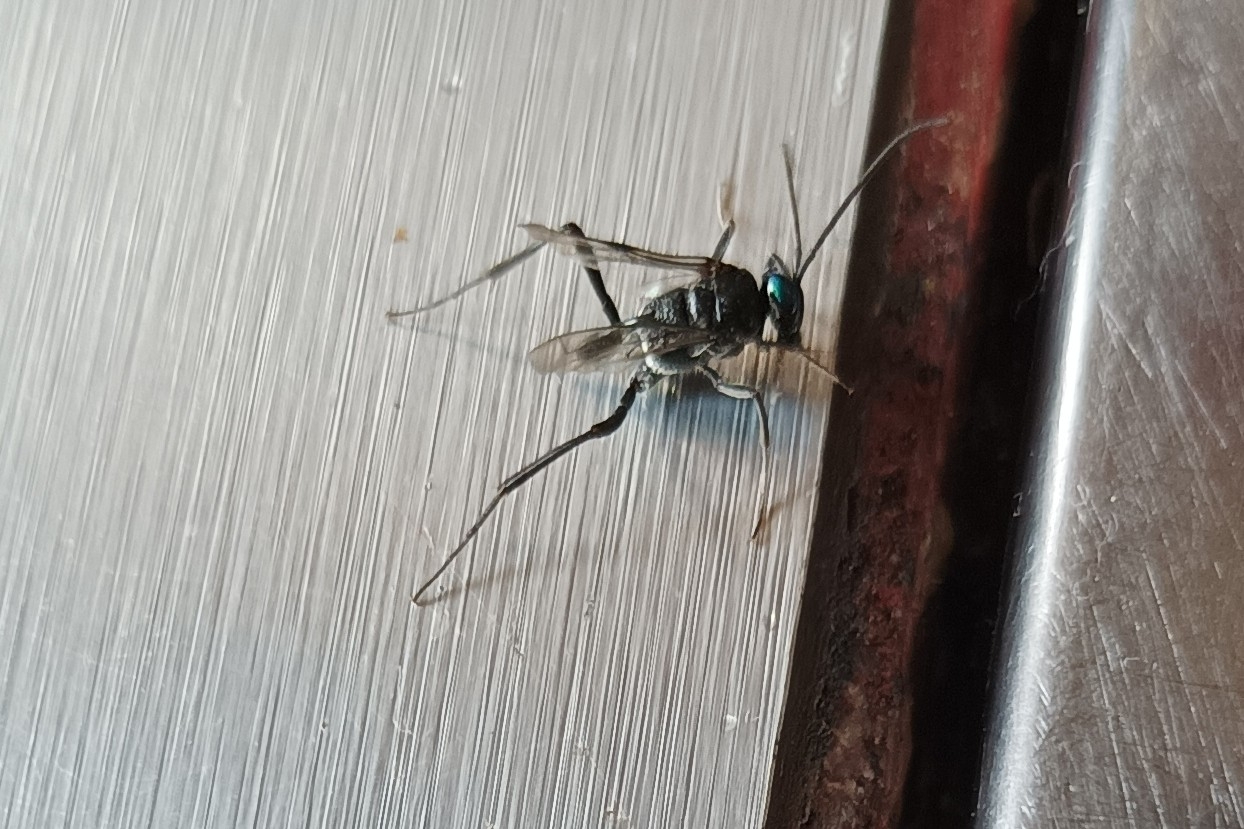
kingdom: Animalia
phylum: Arthropoda
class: Insecta
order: Hymenoptera
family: Evaniidae
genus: Evania
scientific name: Evania appendigaster
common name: Ensign wasp
